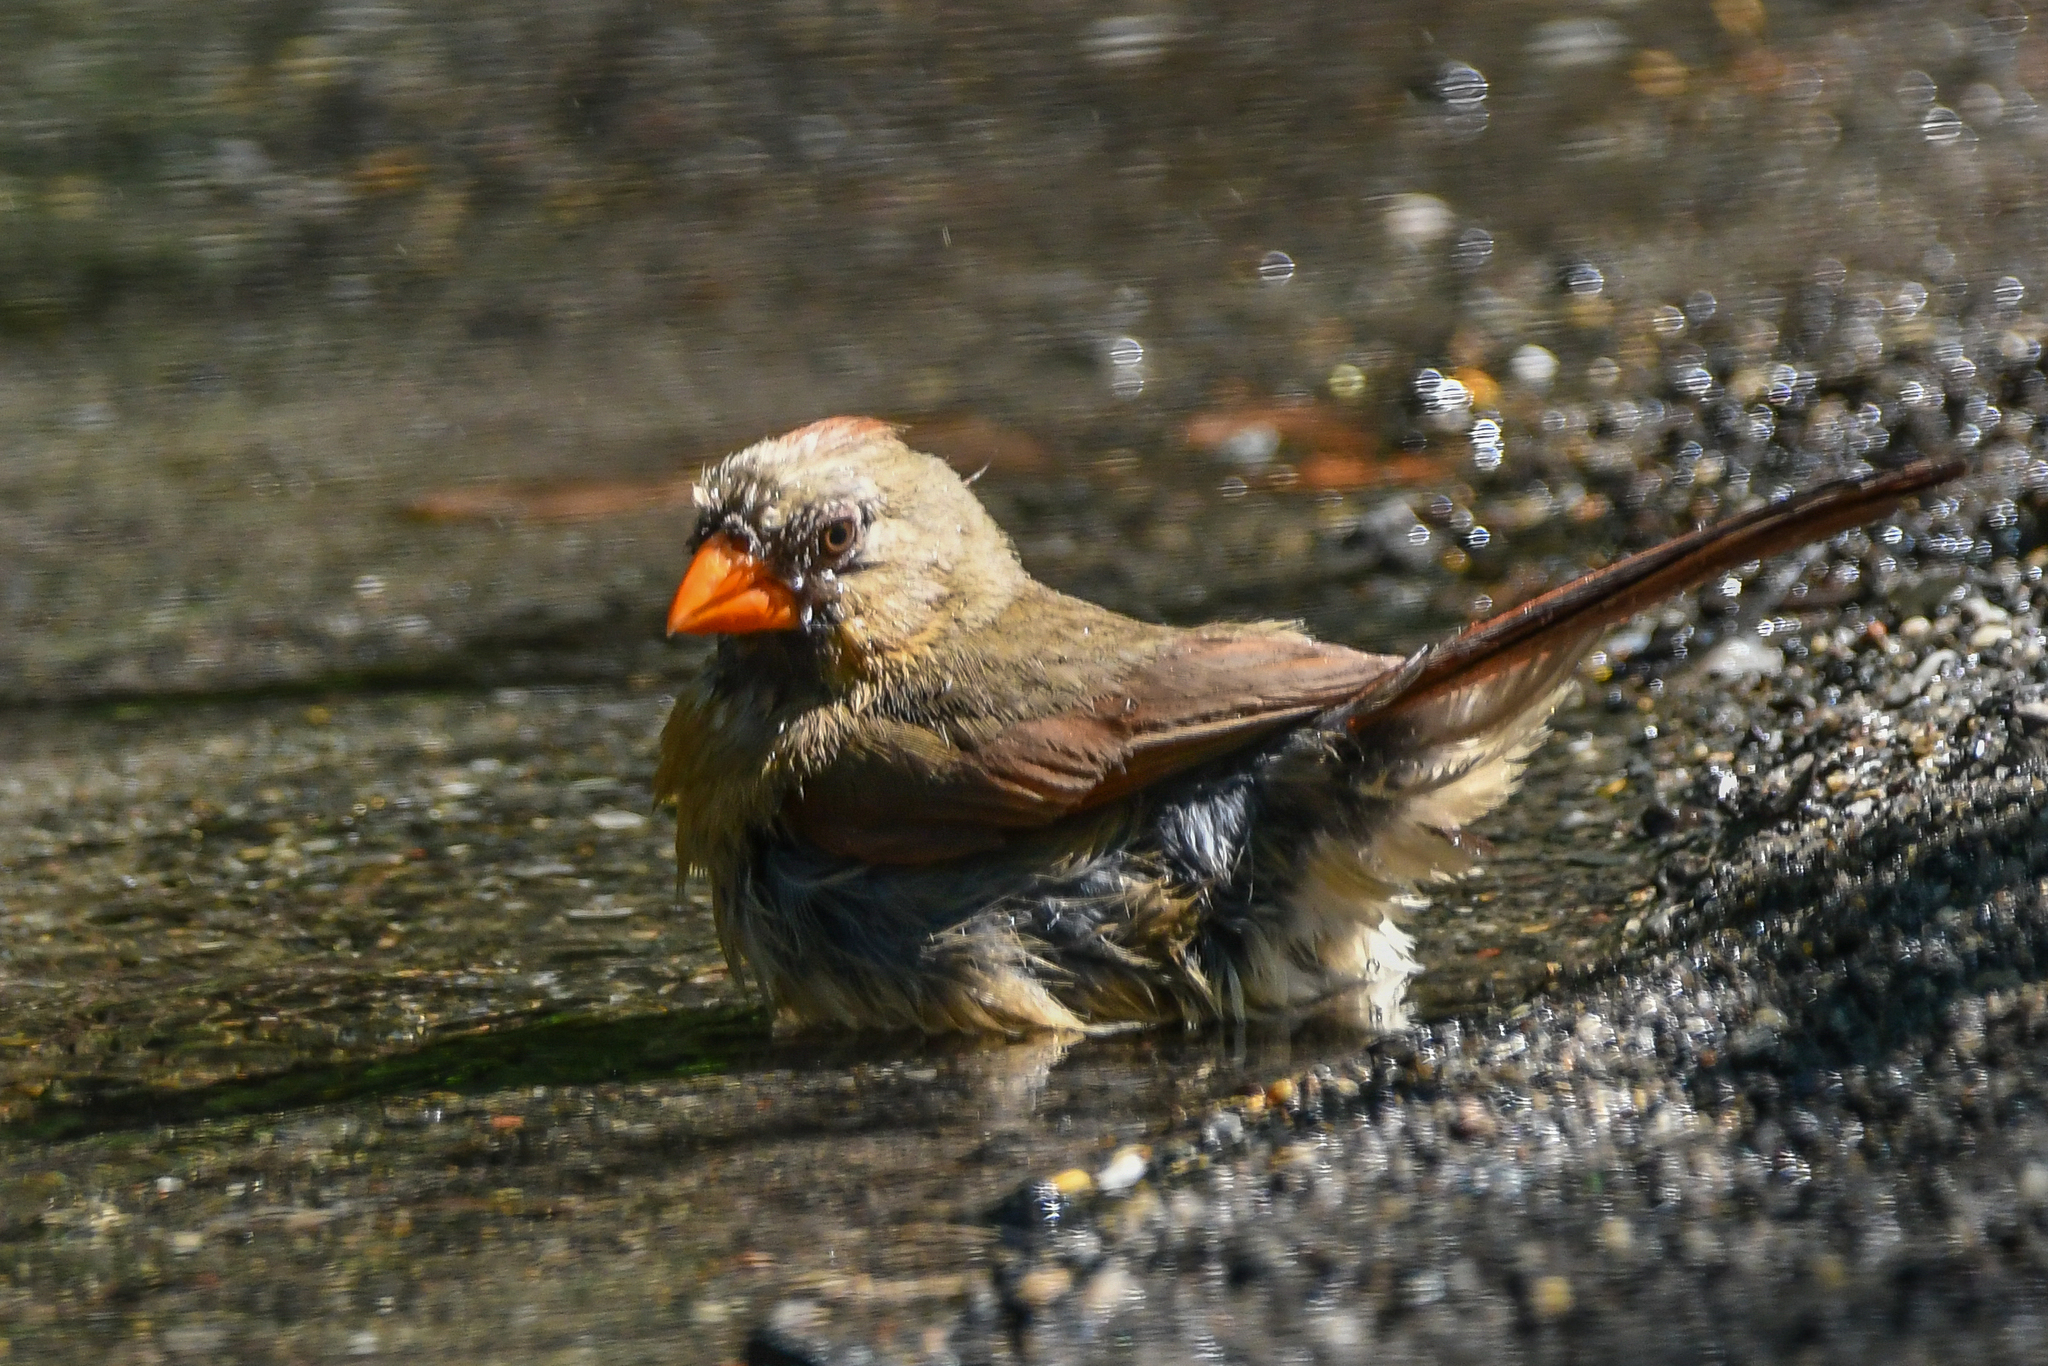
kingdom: Animalia
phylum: Chordata
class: Aves
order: Passeriformes
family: Cardinalidae
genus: Cardinalis
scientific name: Cardinalis cardinalis
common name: Northern cardinal
